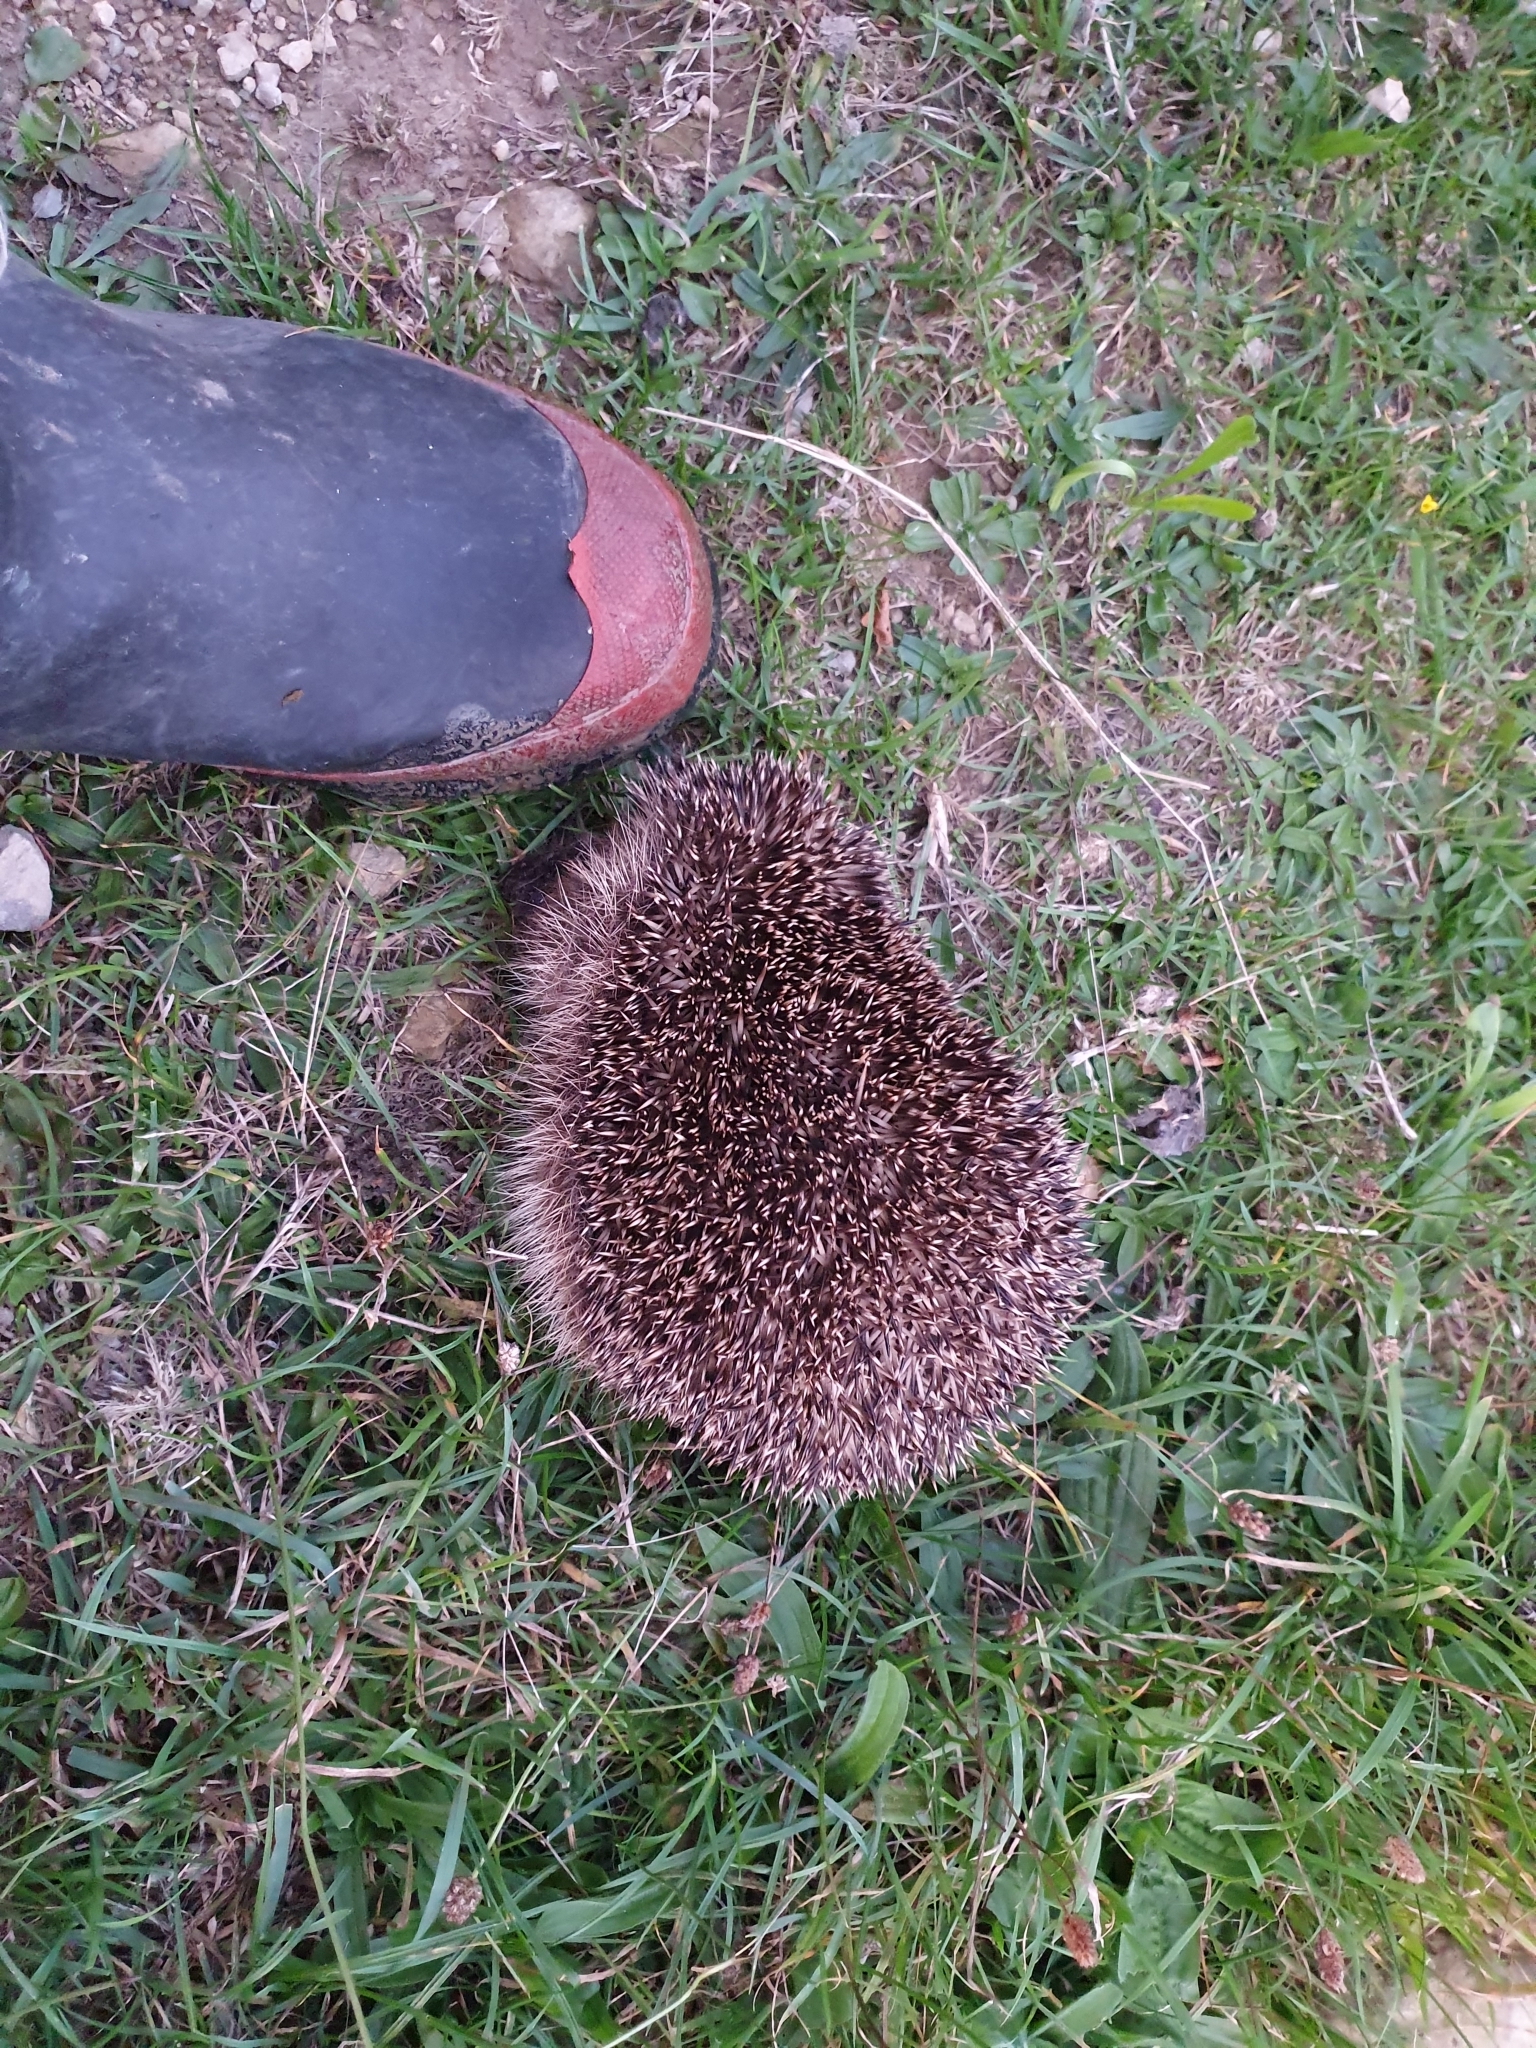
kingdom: Animalia
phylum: Chordata
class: Mammalia
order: Erinaceomorpha
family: Erinaceidae
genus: Erinaceus
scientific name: Erinaceus europaeus
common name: West european hedgehog
